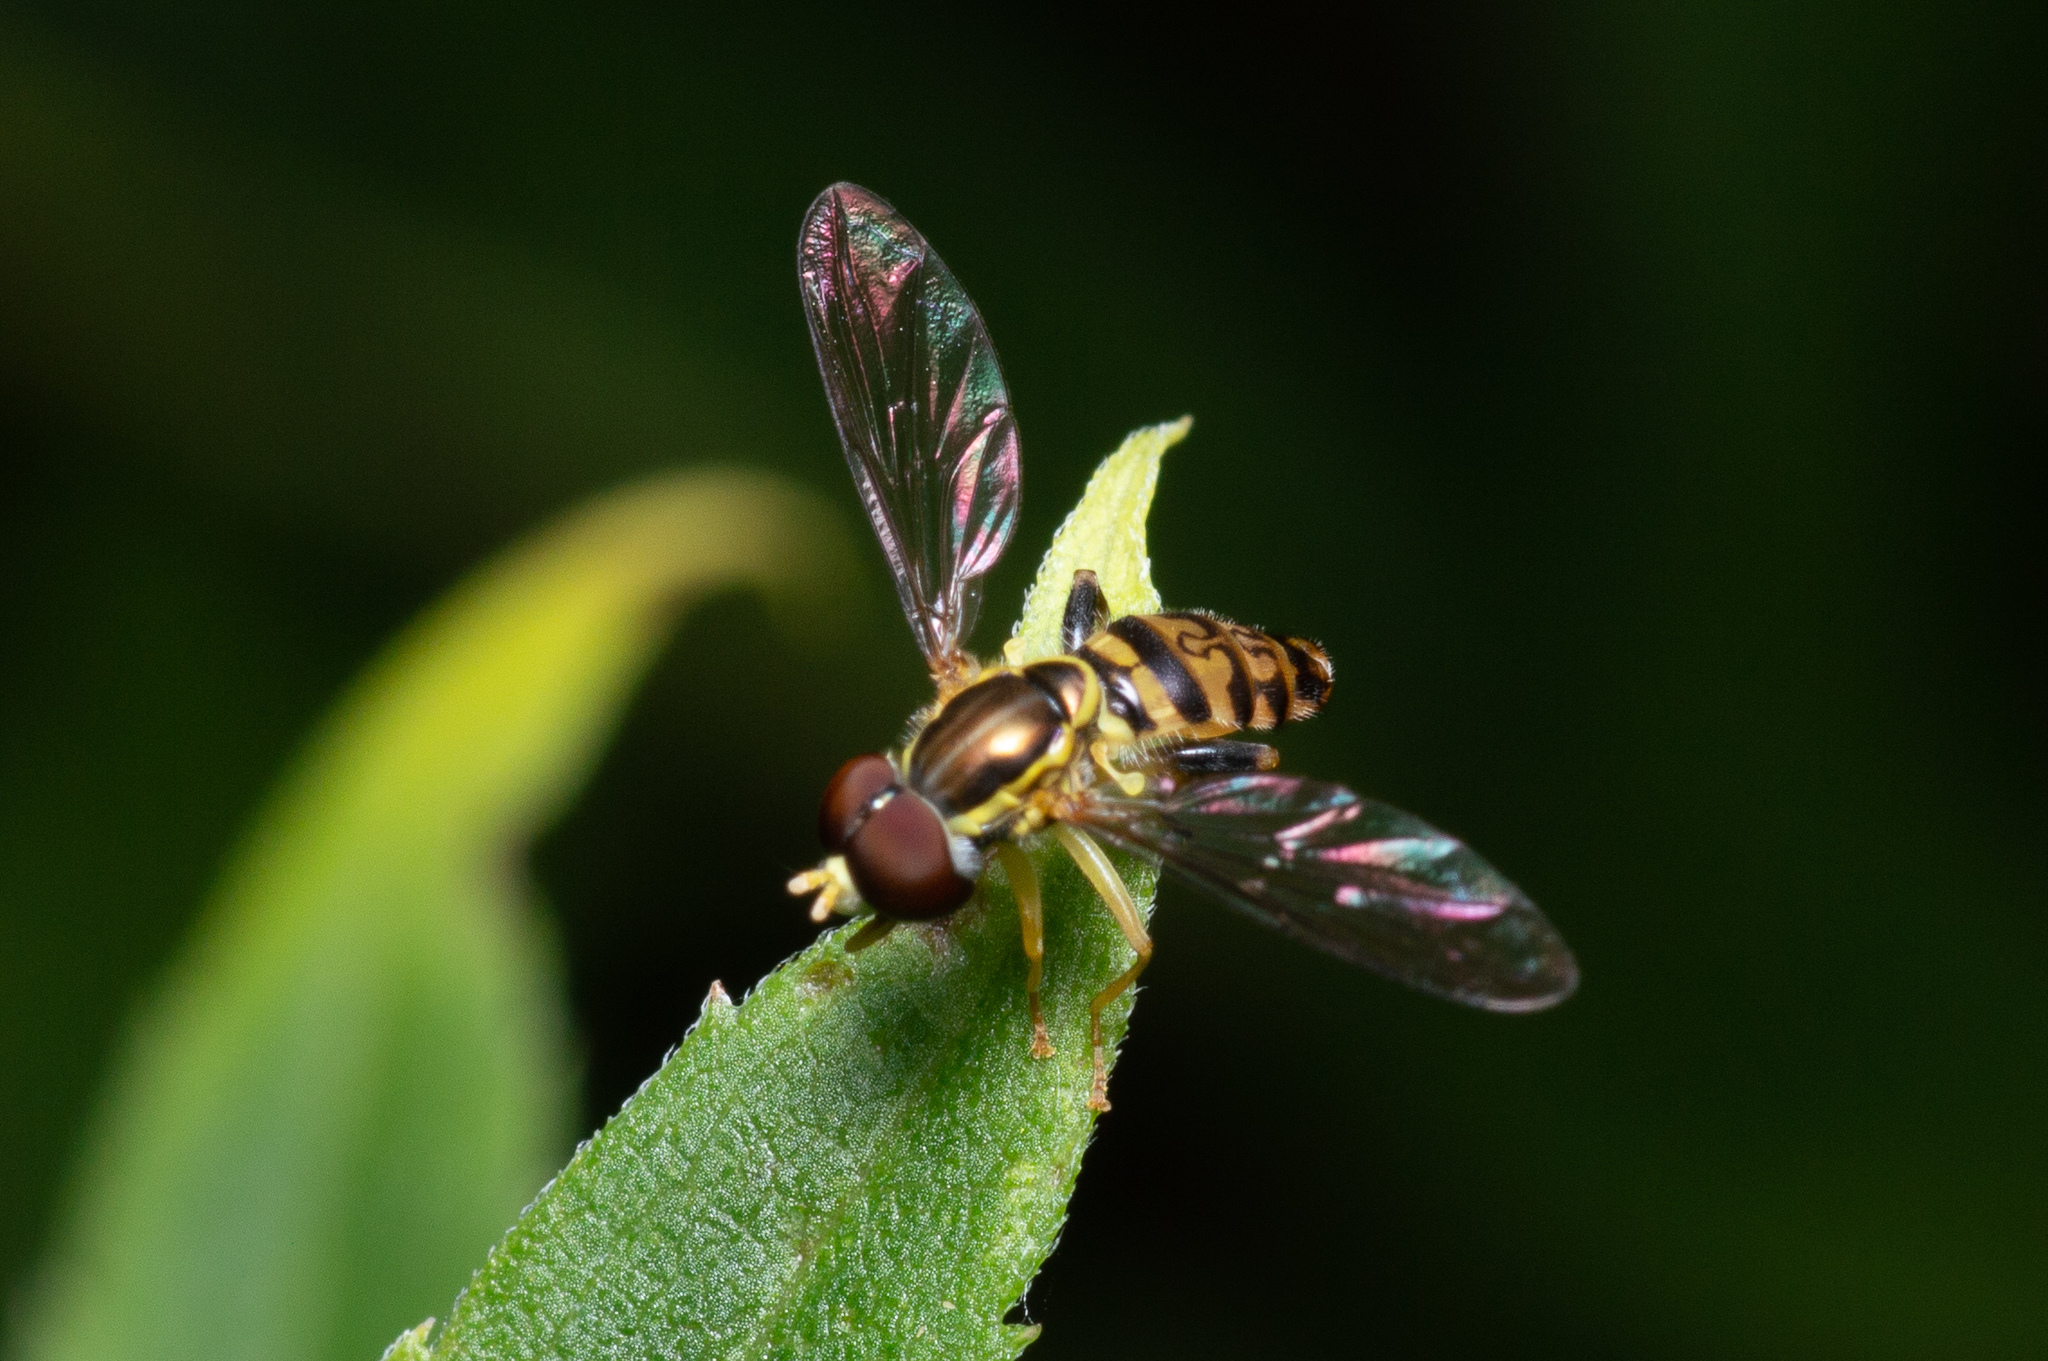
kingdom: Animalia
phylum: Arthropoda
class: Insecta
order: Diptera
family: Syrphidae
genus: Toxomerus
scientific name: Toxomerus geminatus
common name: Eastern calligrapher
